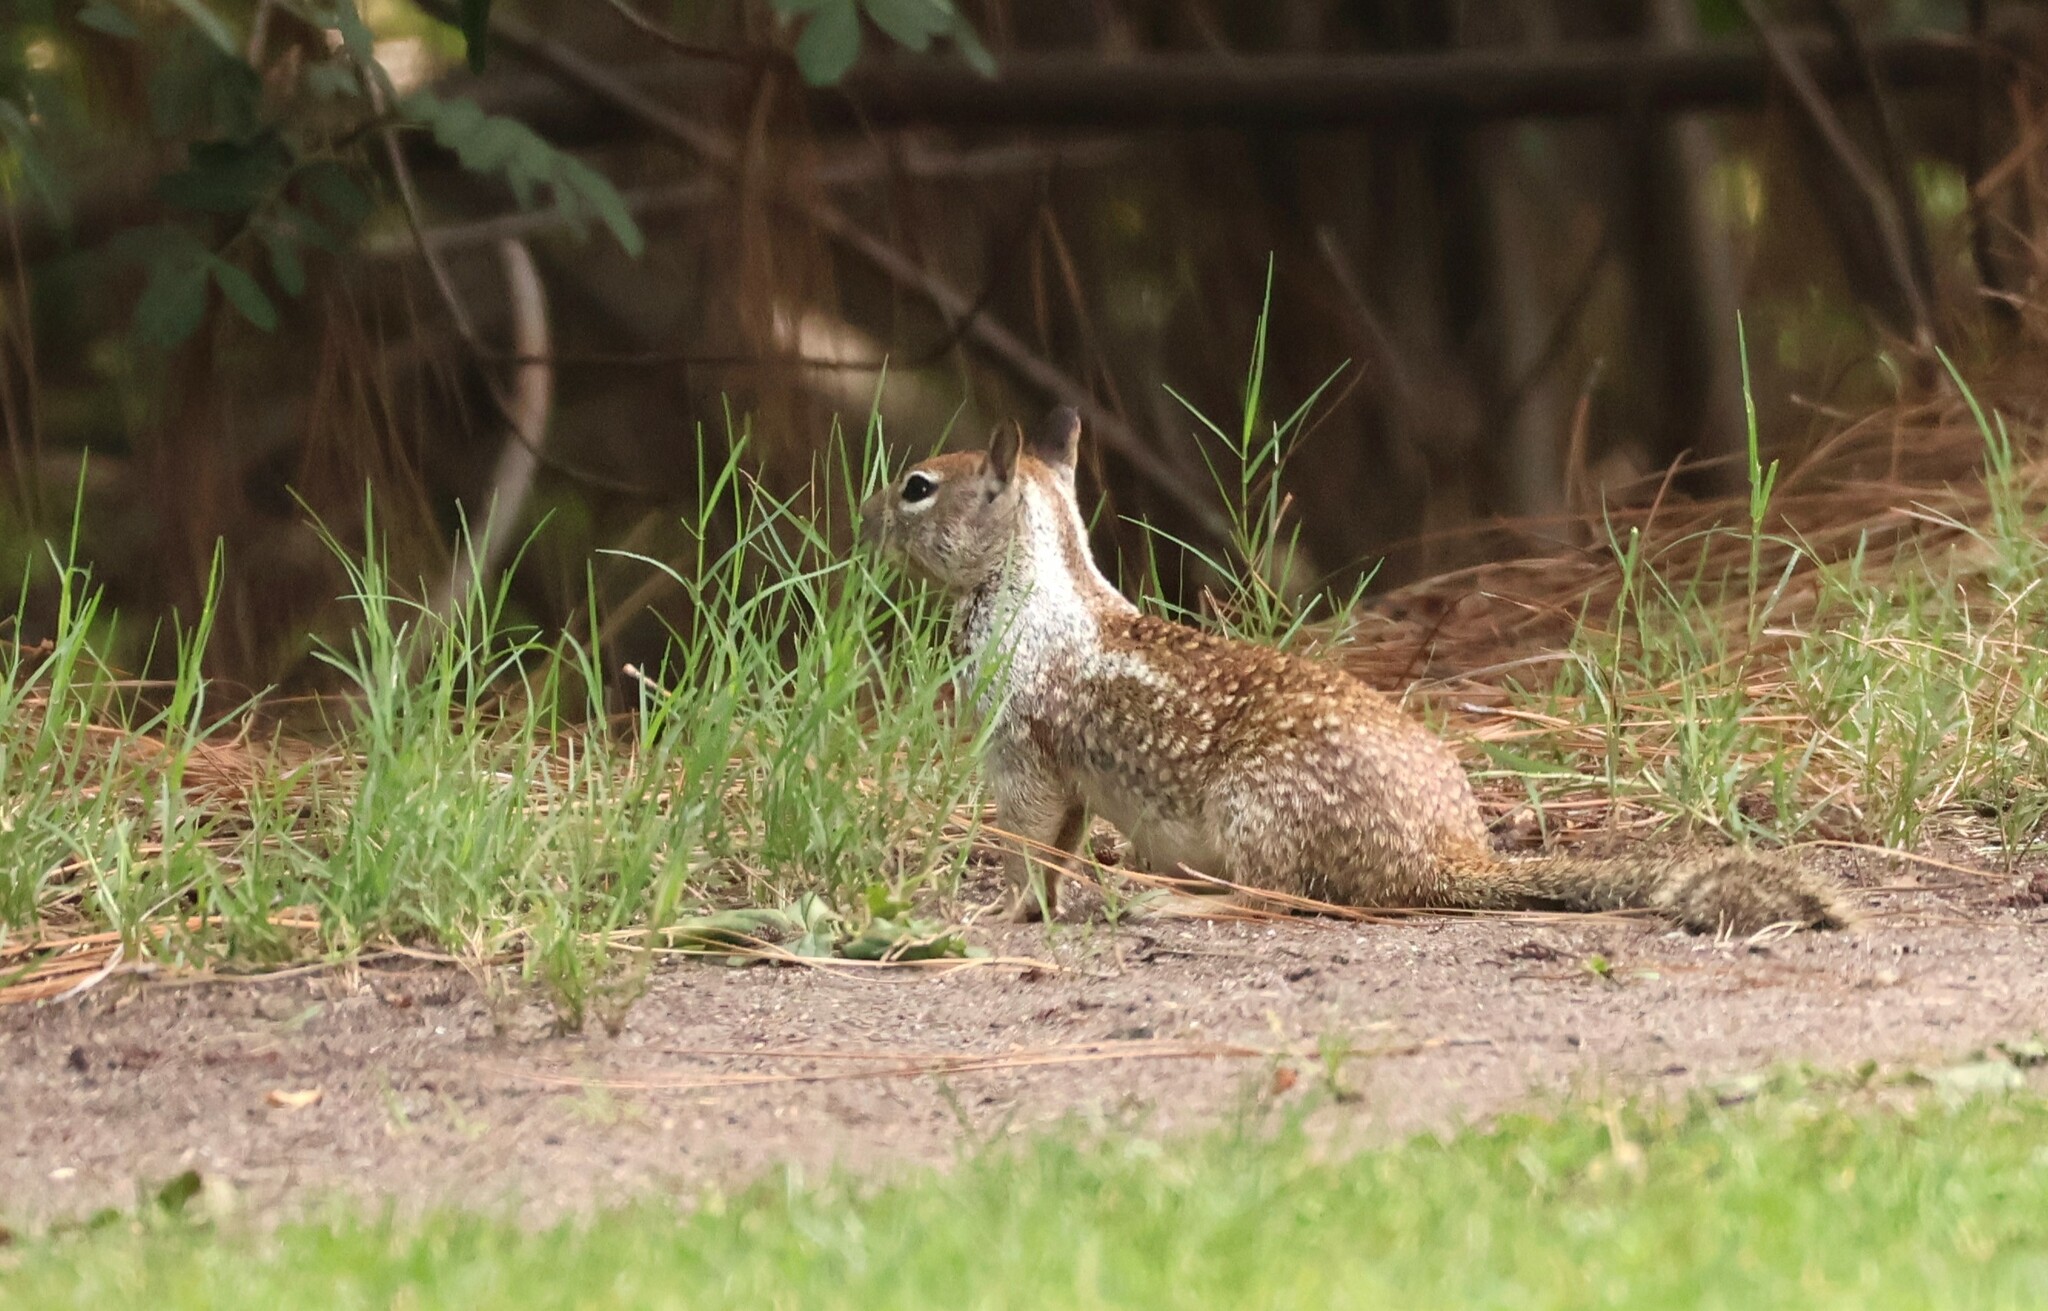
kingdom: Animalia
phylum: Chordata
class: Mammalia
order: Rodentia
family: Sciuridae
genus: Otospermophilus
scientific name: Otospermophilus beecheyi
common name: California ground squirrel
